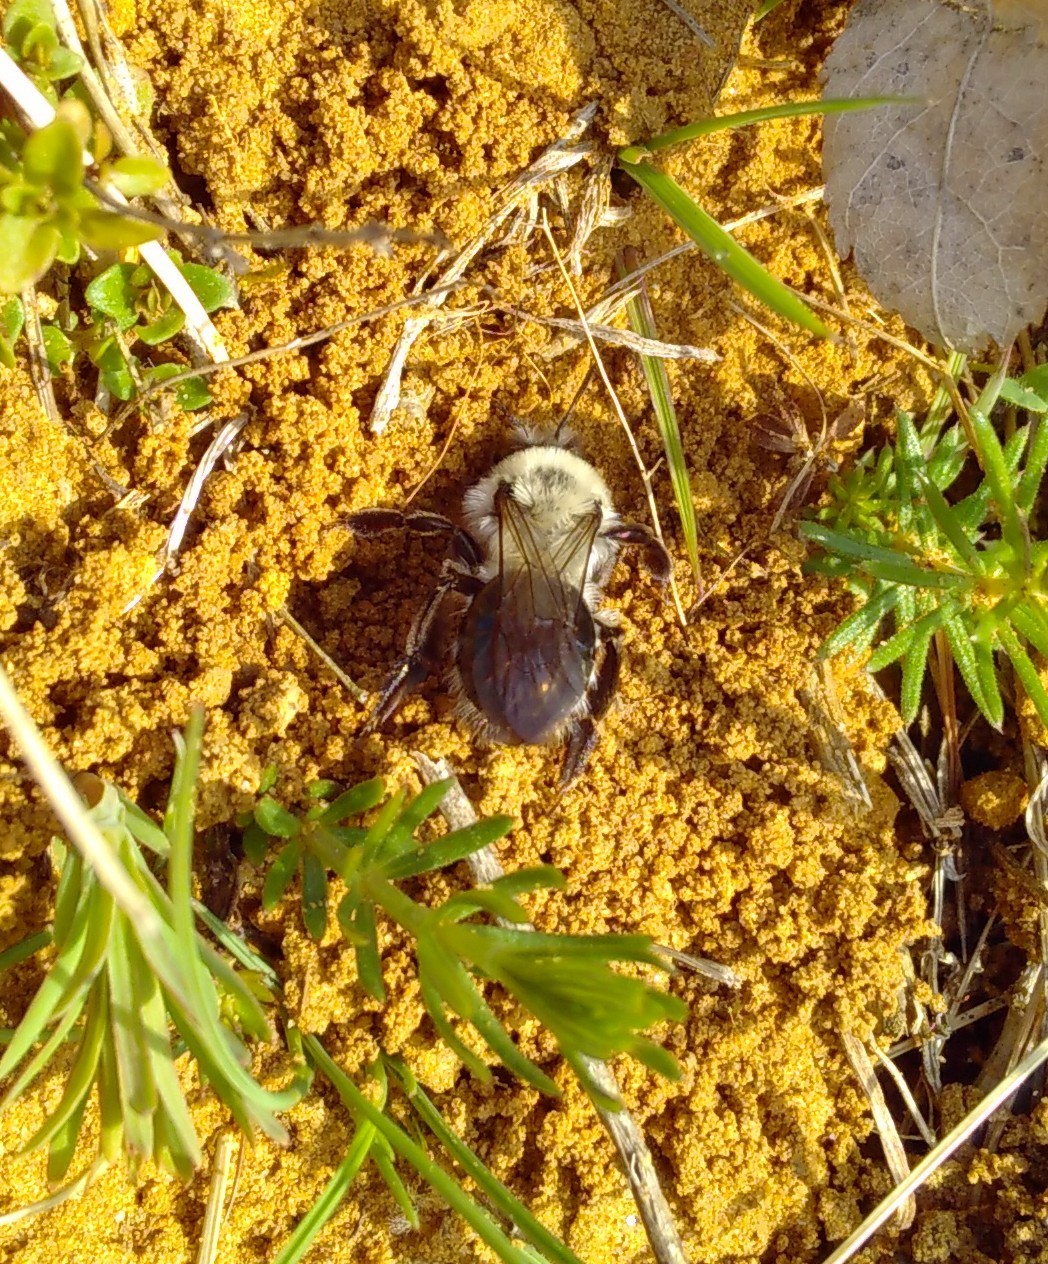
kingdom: Animalia
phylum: Arthropoda
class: Insecta
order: Hymenoptera
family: Andrenidae
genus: Andrena
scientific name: Andrena vaga
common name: Grey-backed mining bee
